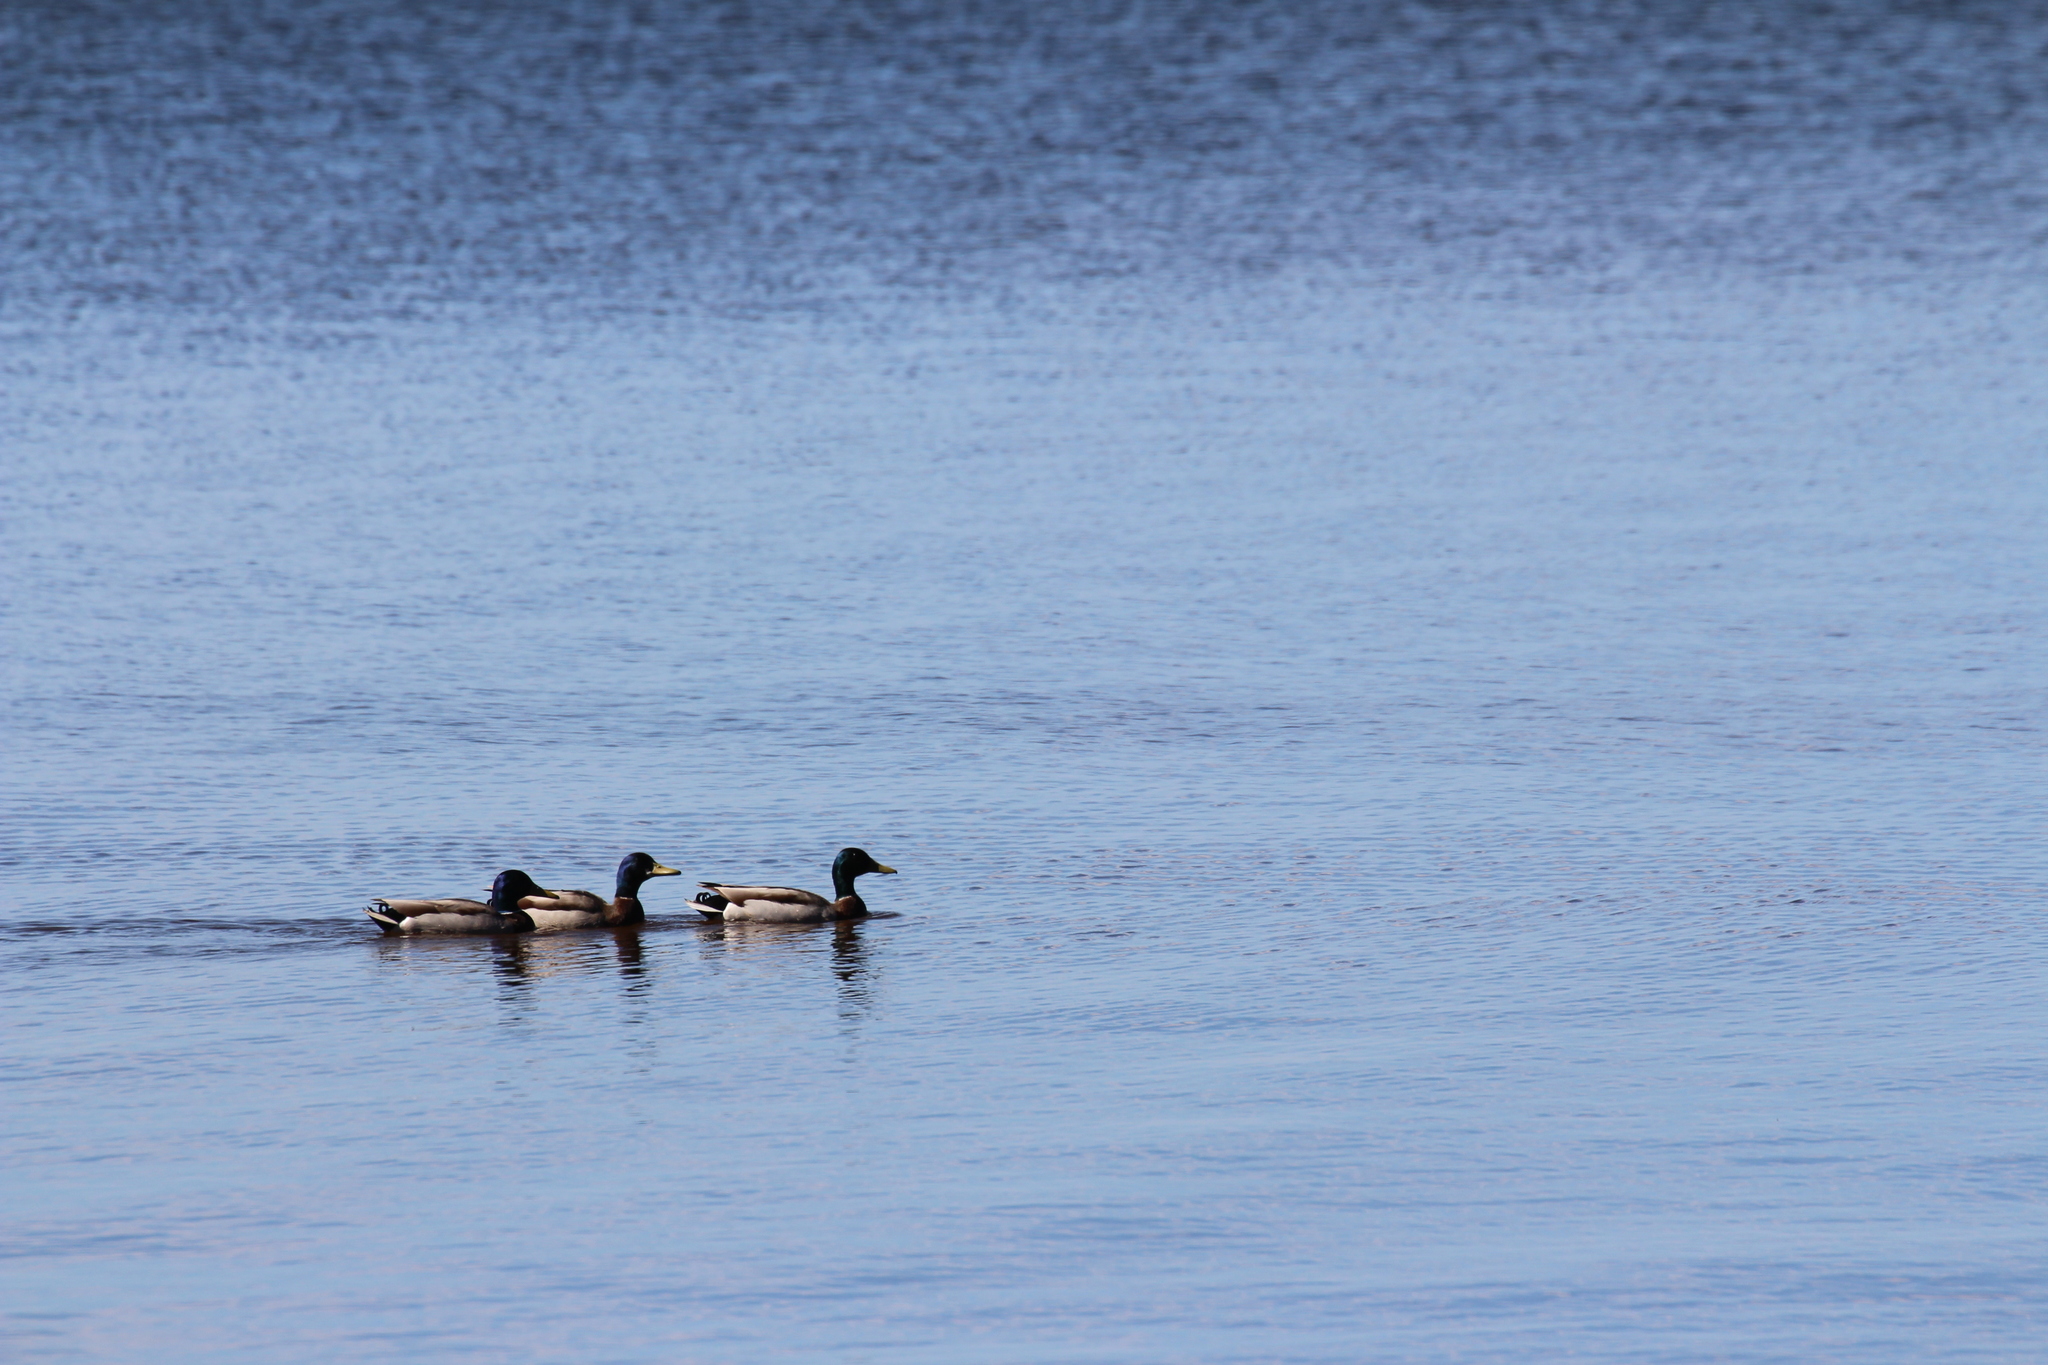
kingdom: Animalia
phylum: Chordata
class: Aves
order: Anseriformes
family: Anatidae
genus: Anas
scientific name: Anas platyrhynchos
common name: Mallard
